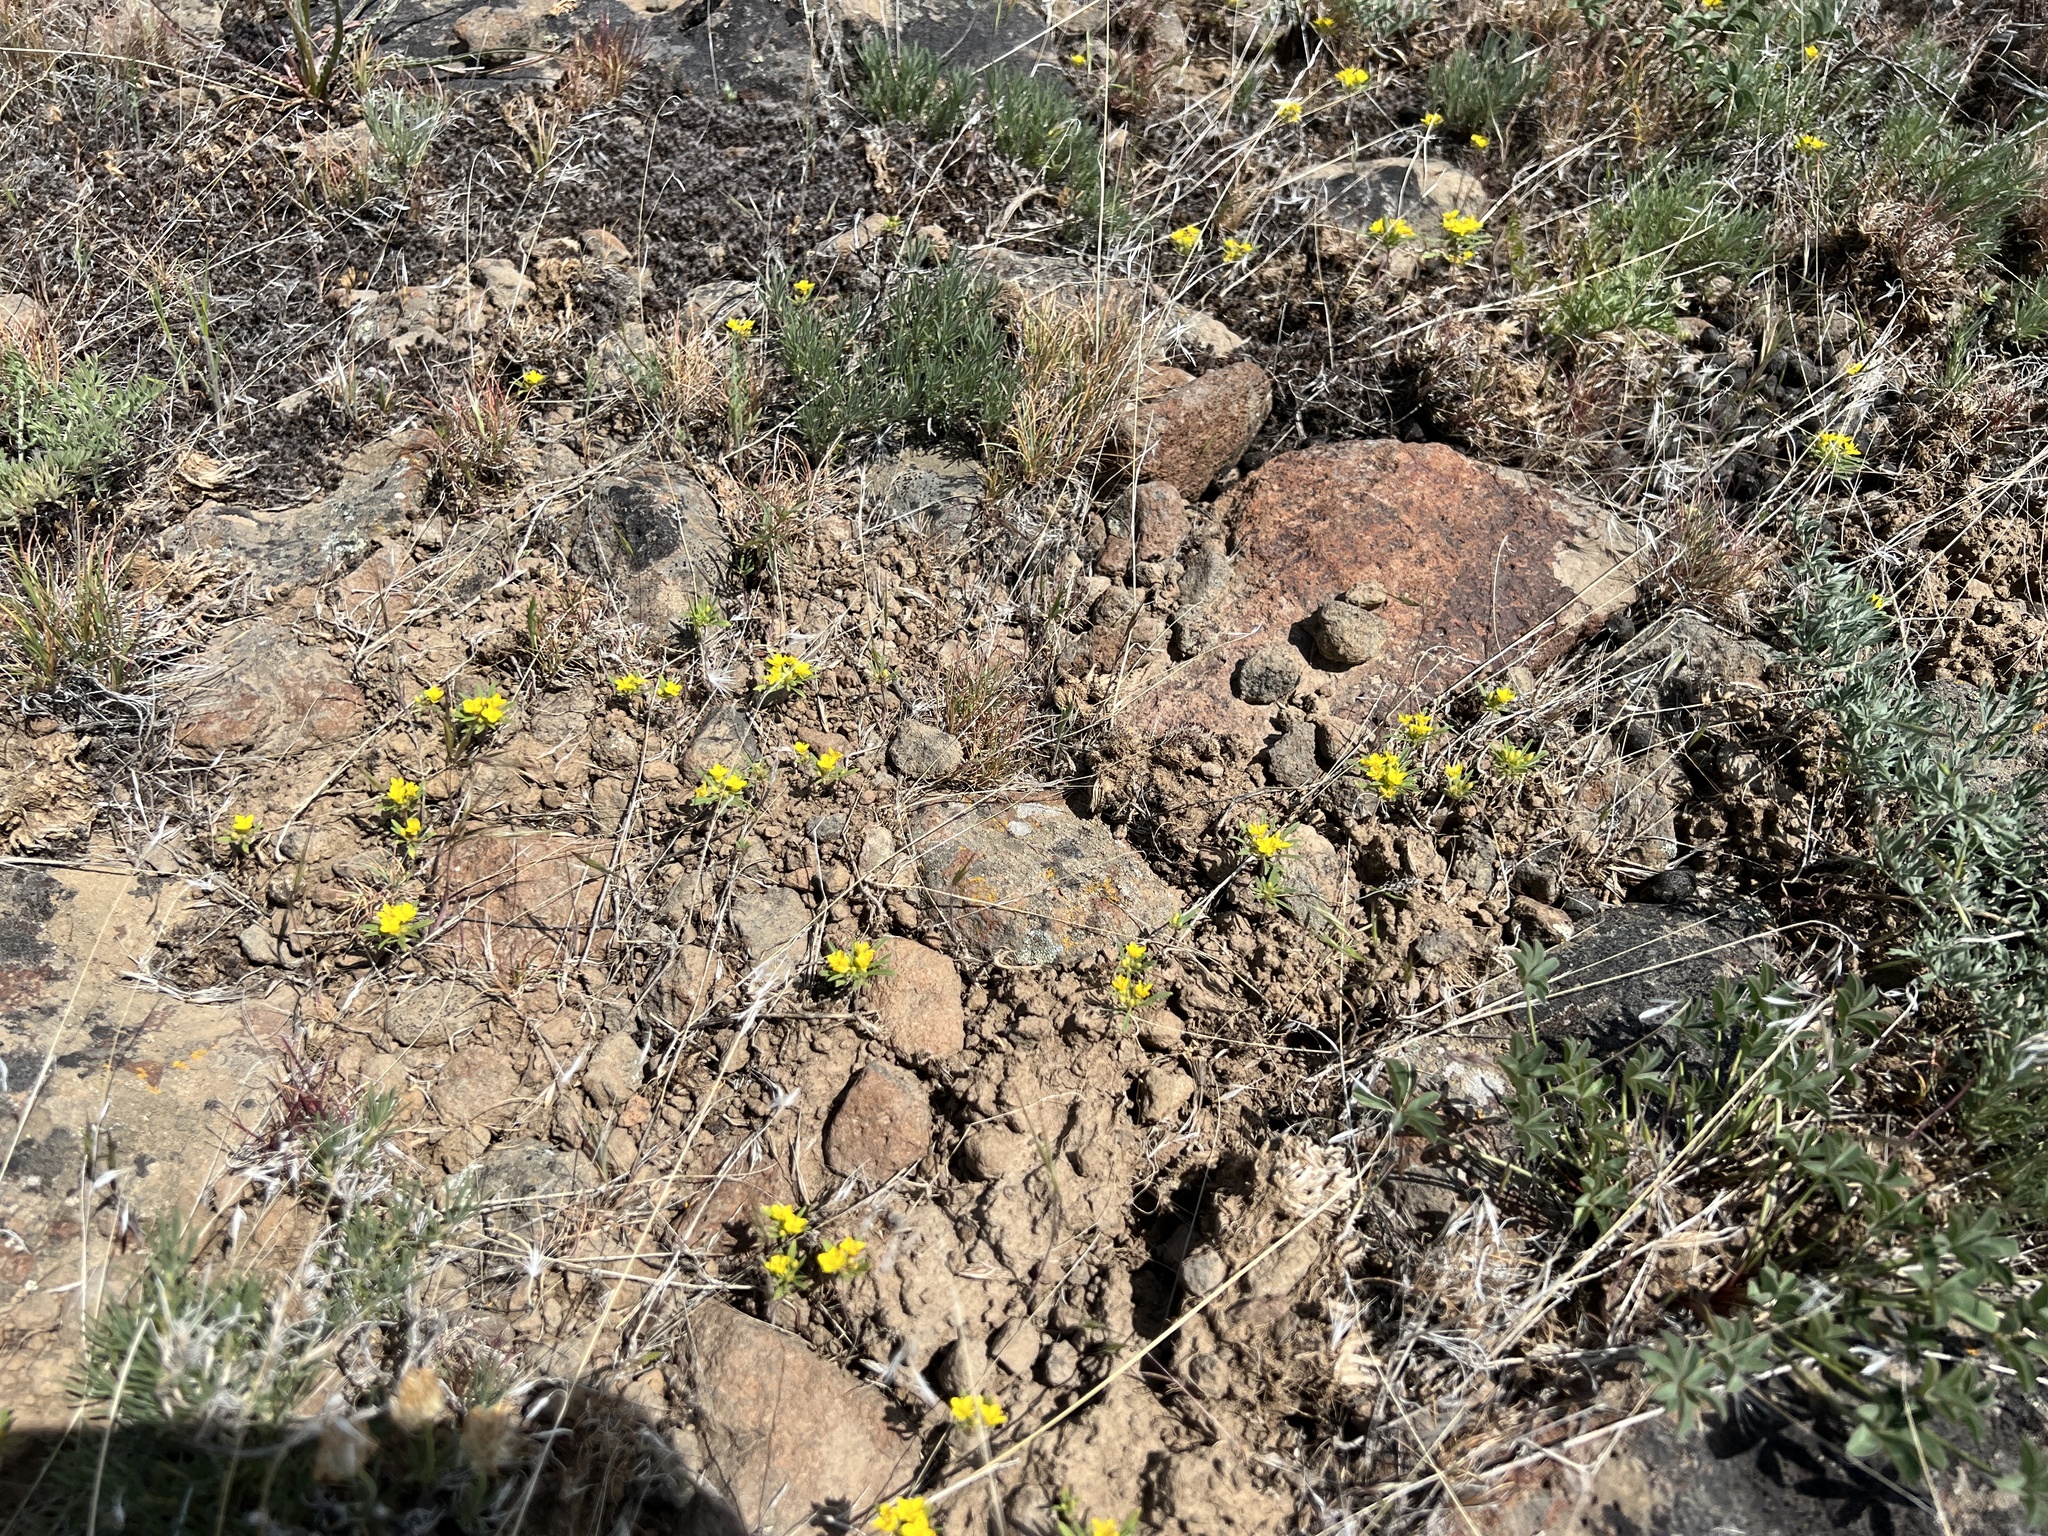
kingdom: Plantae
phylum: Tracheophyta
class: Magnoliopsida
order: Myrtales
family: Onagraceae
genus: Neoholmgrenia
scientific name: Neoholmgrenia hilgardii
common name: Hilgard's suncup
